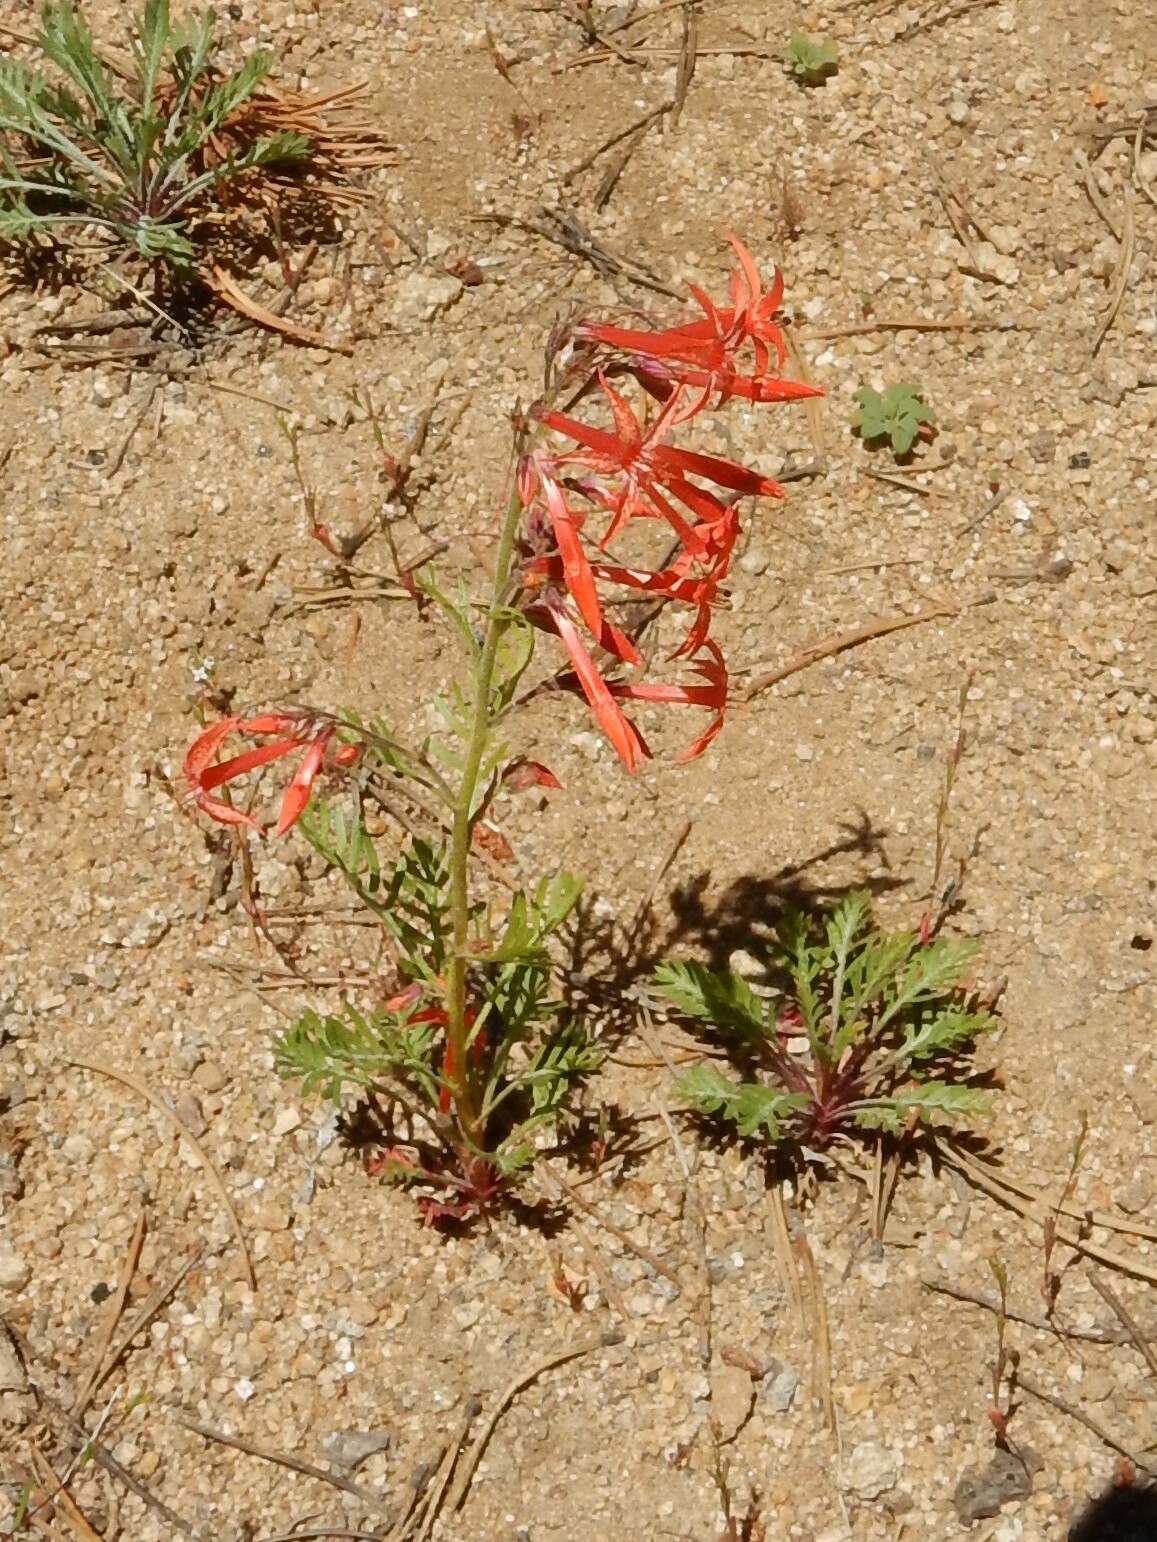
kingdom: Plantae
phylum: Tracheophyta
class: Magnoliopsida
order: Ericales
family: Polemoniaceae
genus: Ipomopsis
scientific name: Ipomopsis aggregata
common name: Scarlet gilia
